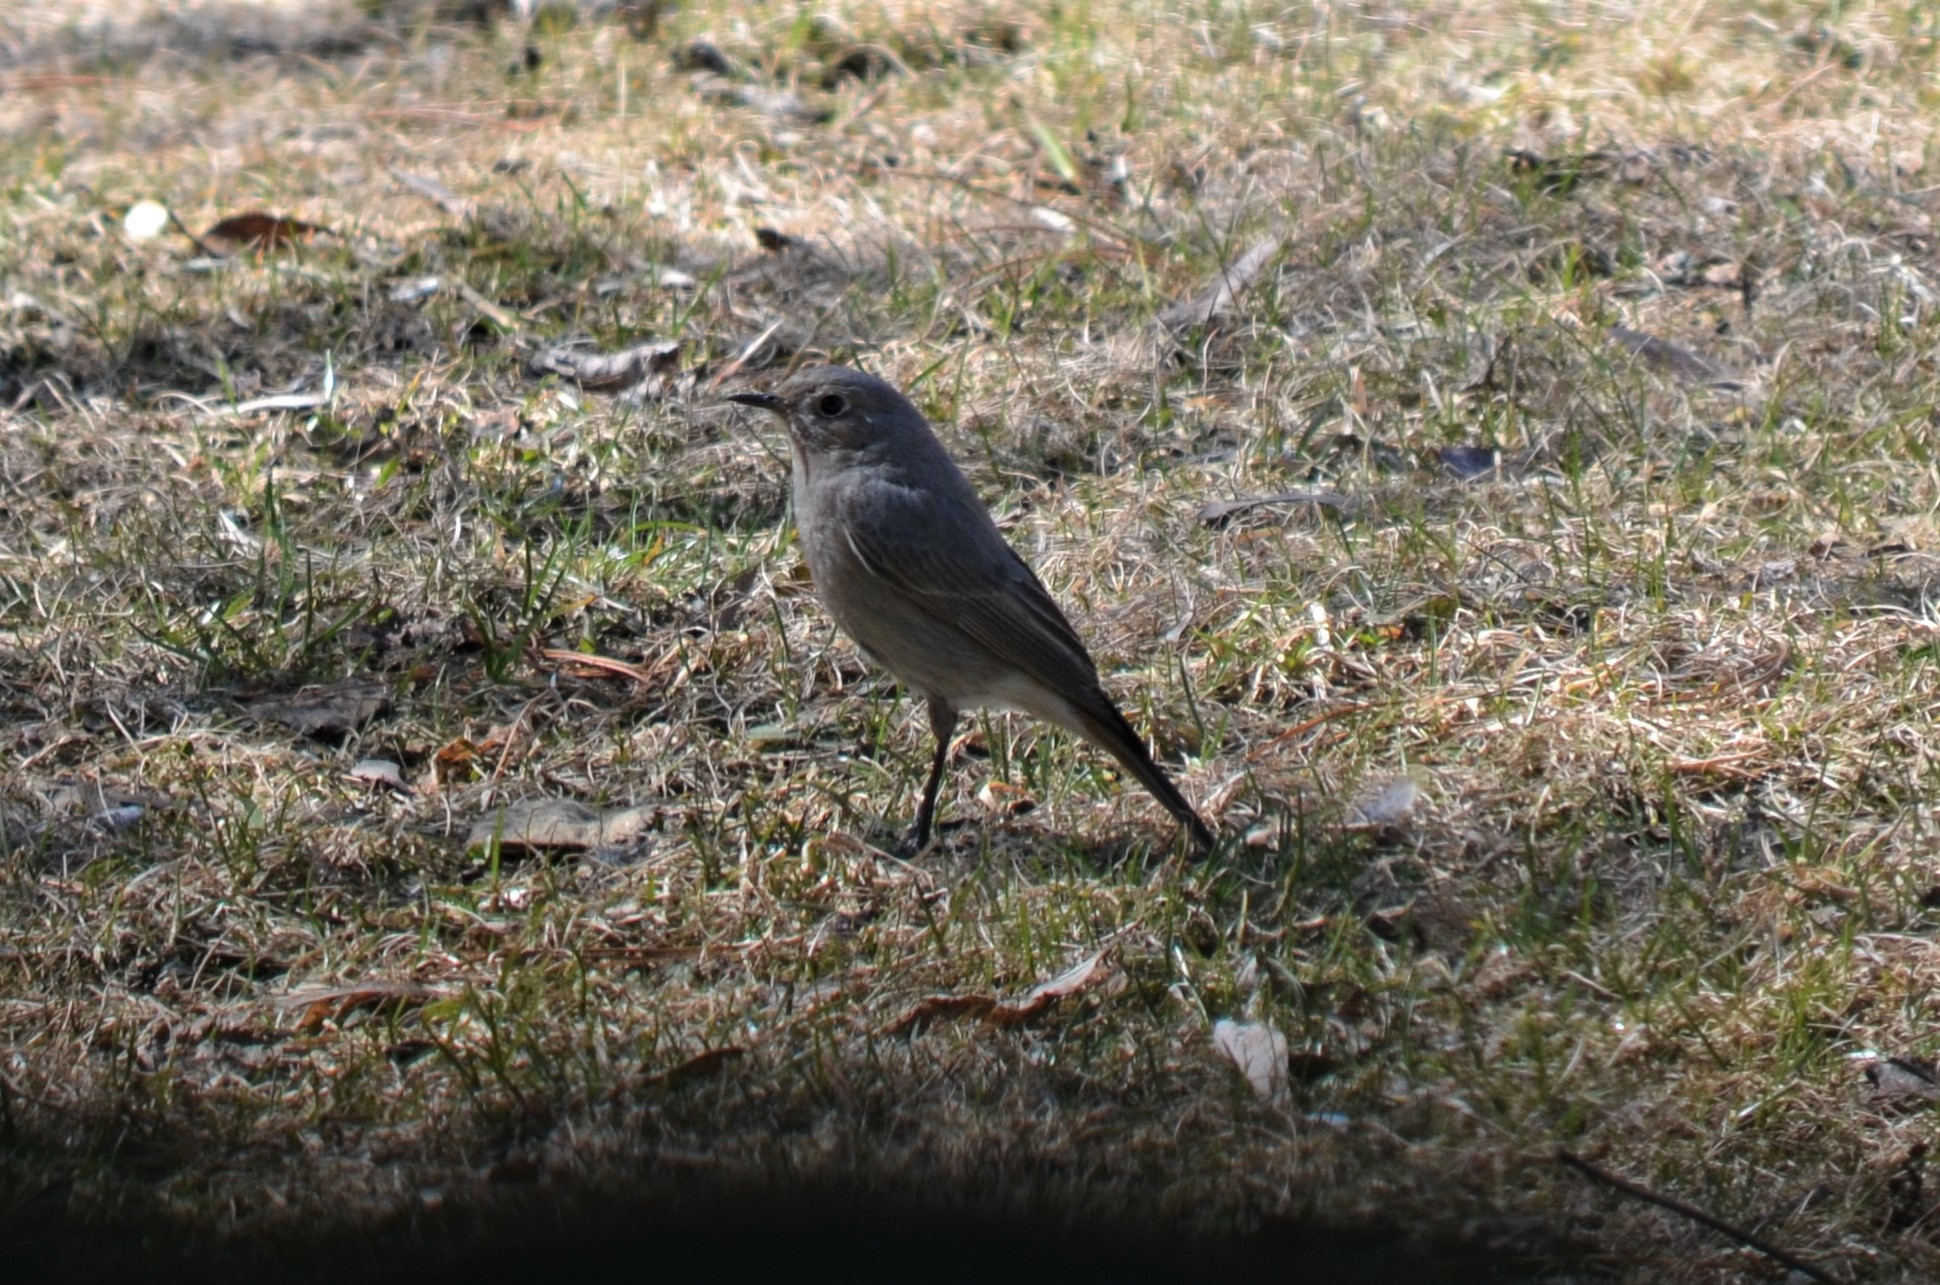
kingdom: Animalia
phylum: Chordata
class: Aves
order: Passeriformes
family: Muscicapidae
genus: Phoenicurus
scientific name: Phoenicurus ochruros
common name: Black redstart
